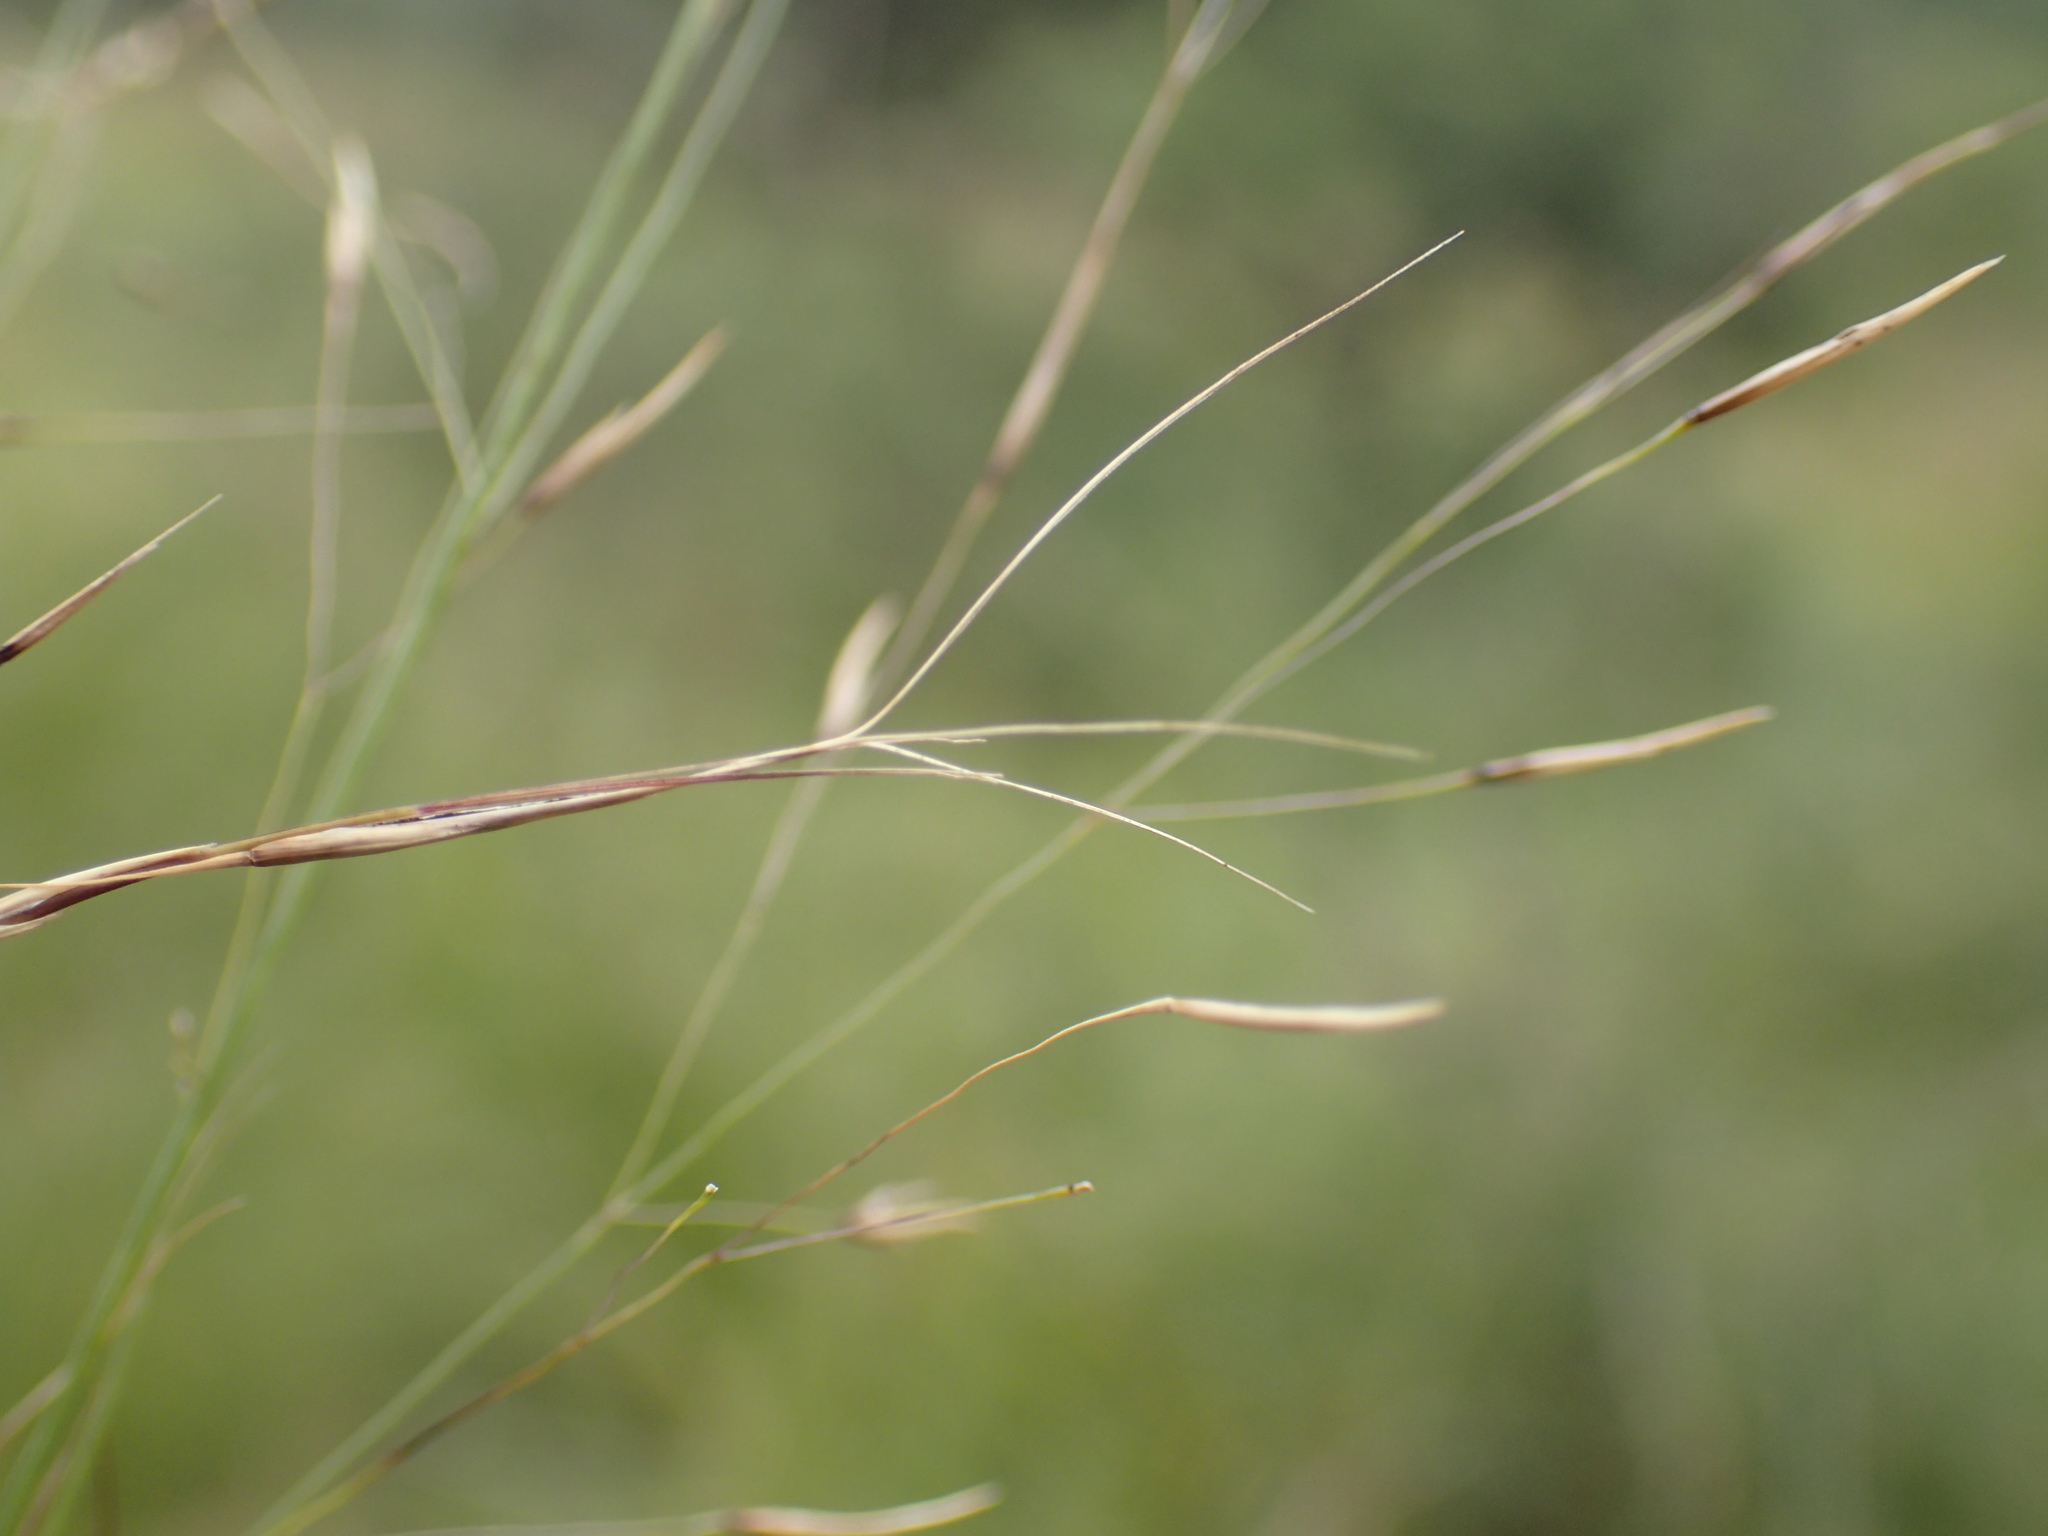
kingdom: Plantae
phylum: Tracheophyta
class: Liliopsida
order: Poales
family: Poaceae
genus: Aristida
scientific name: Aristida junciformis
